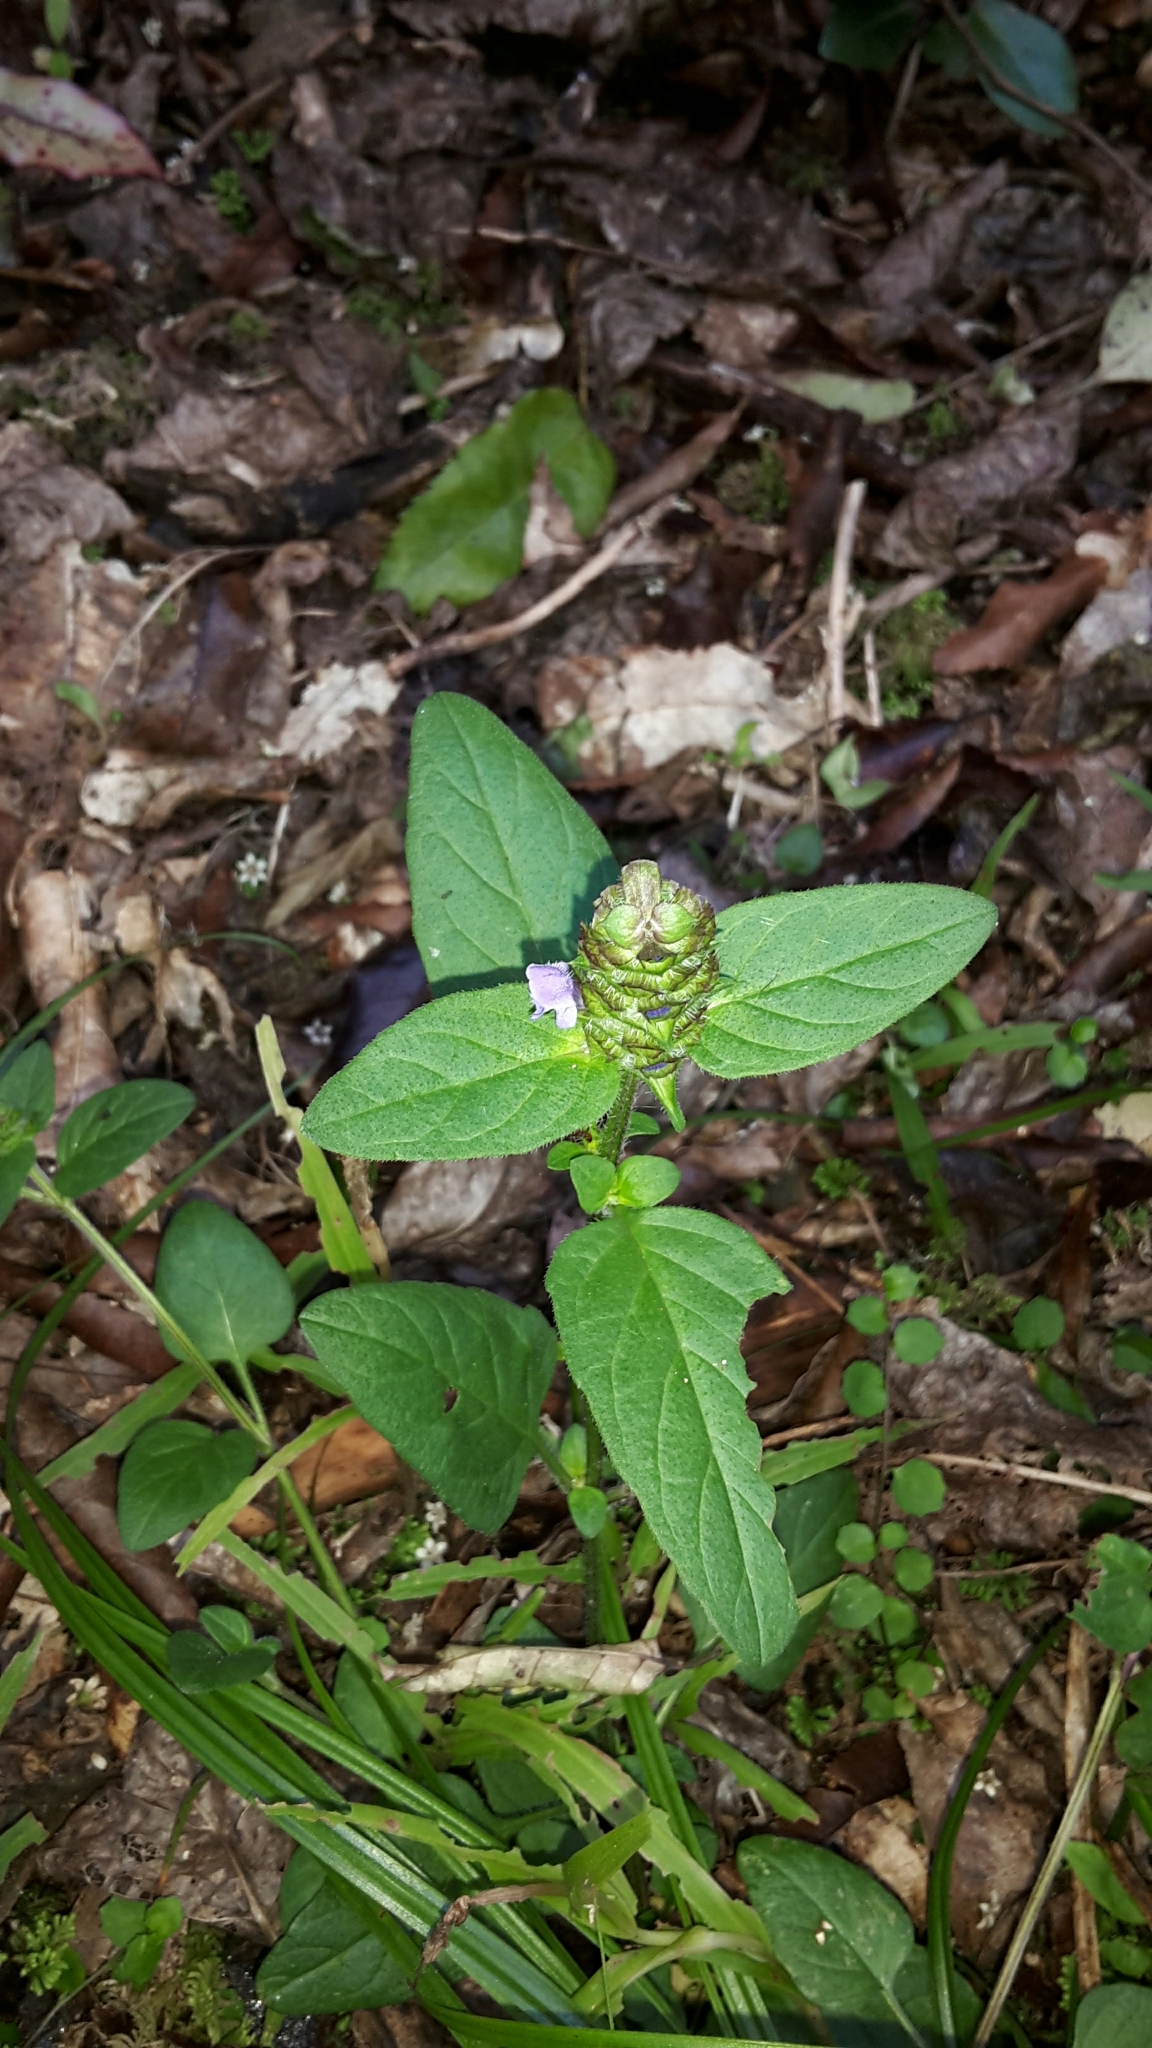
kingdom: Plantae
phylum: Tracheophyta
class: Magnoliopsida
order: Lamiales
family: Lamiaceae
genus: Prunella
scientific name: Prunella vulgaris
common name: Heal-all
